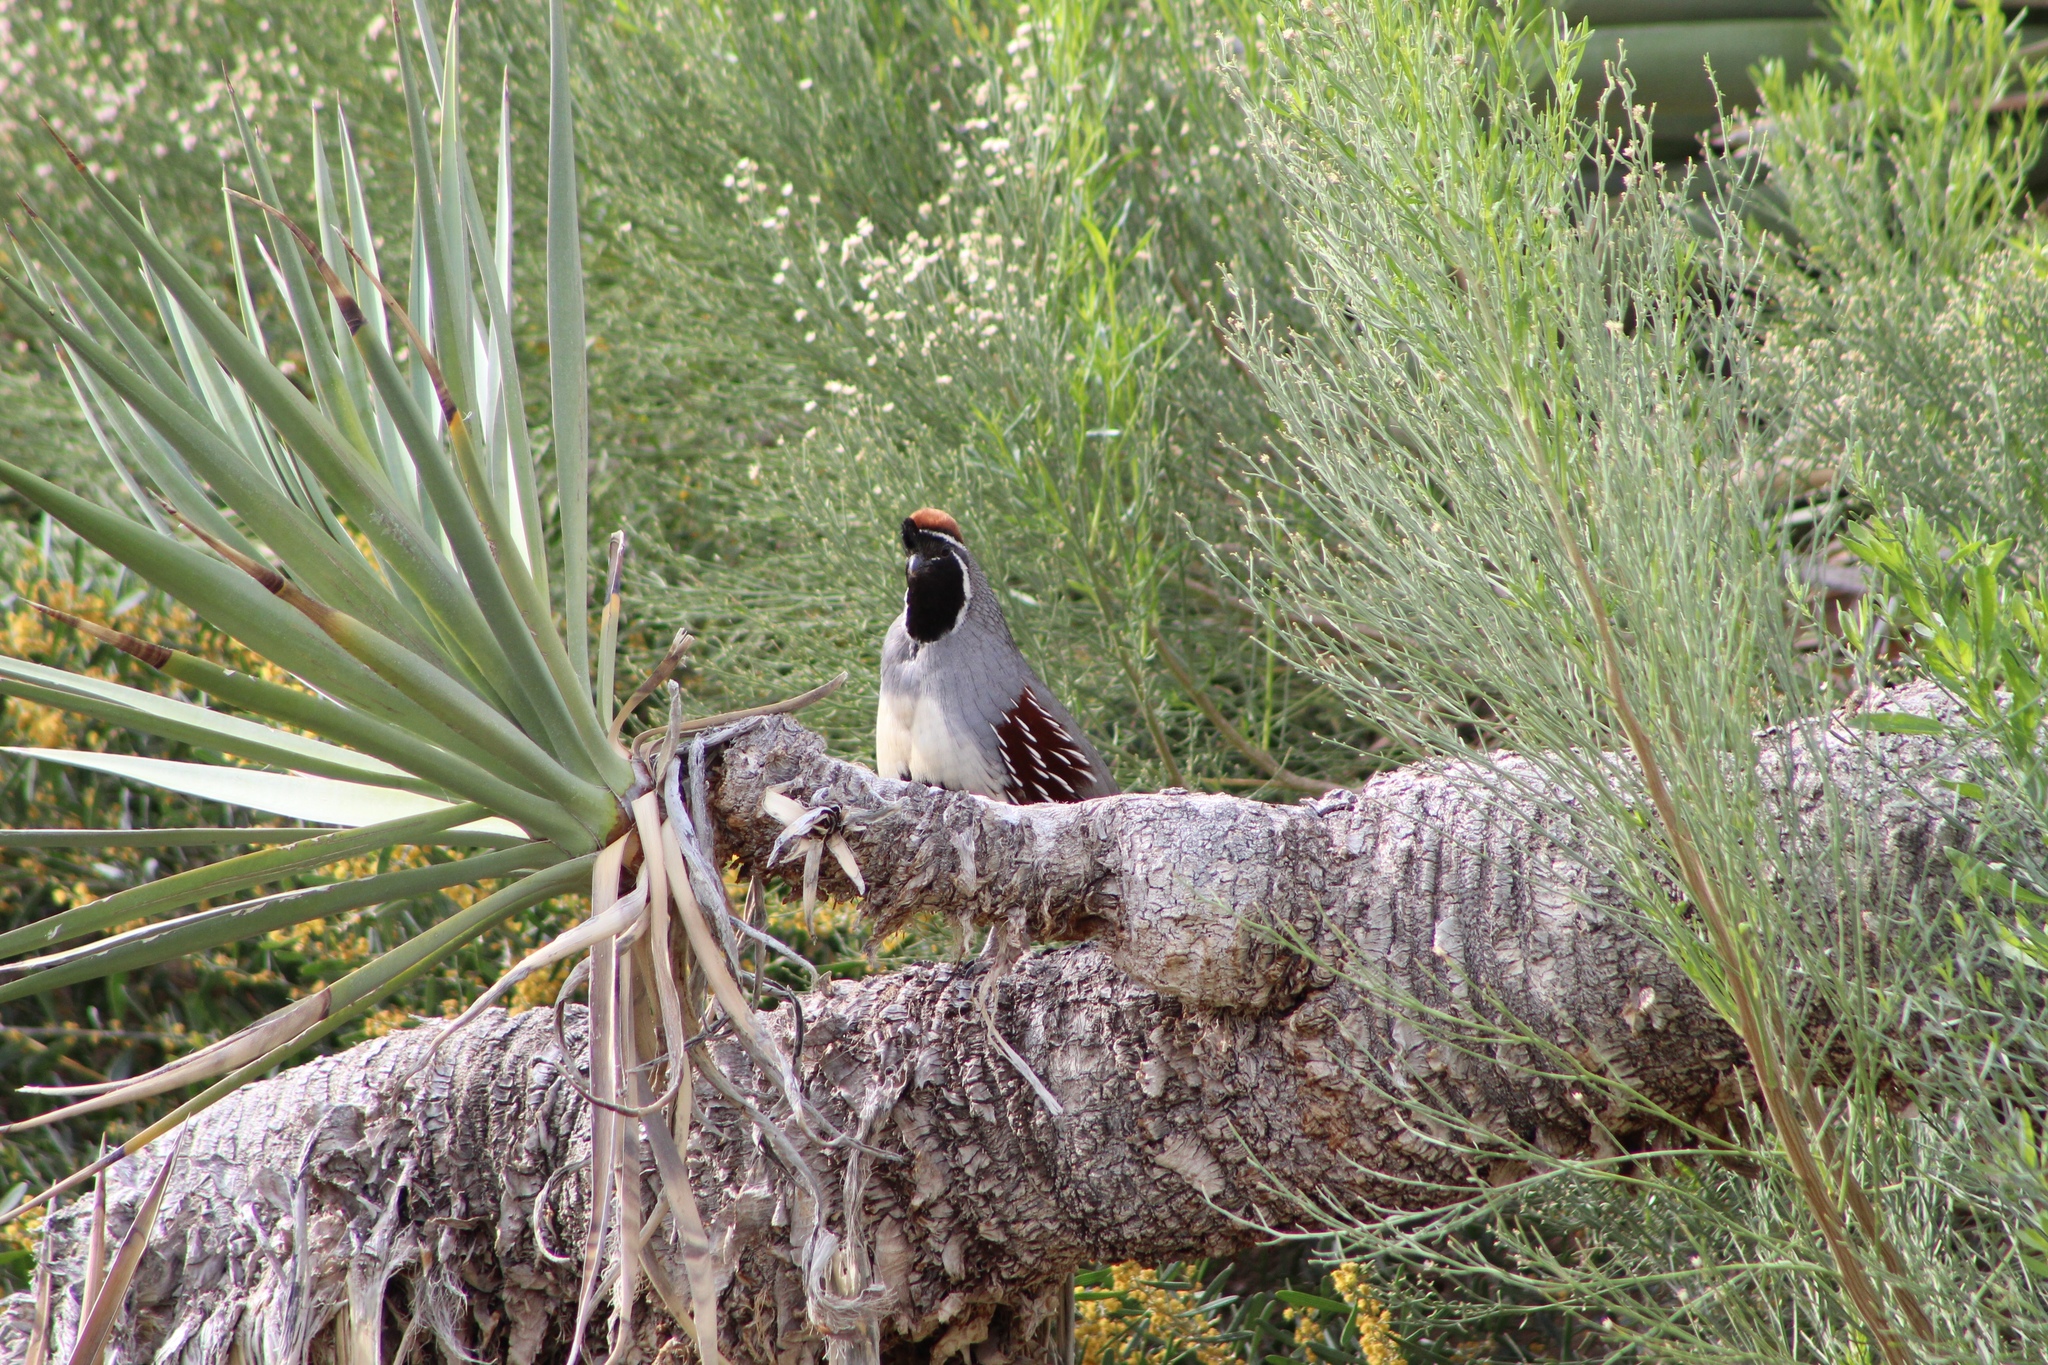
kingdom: Animalia
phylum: Chordata
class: Aves
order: Galliformes
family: Odontophoridae
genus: Callipepla
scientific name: Callipepla gambelii
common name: Gambel's quail
